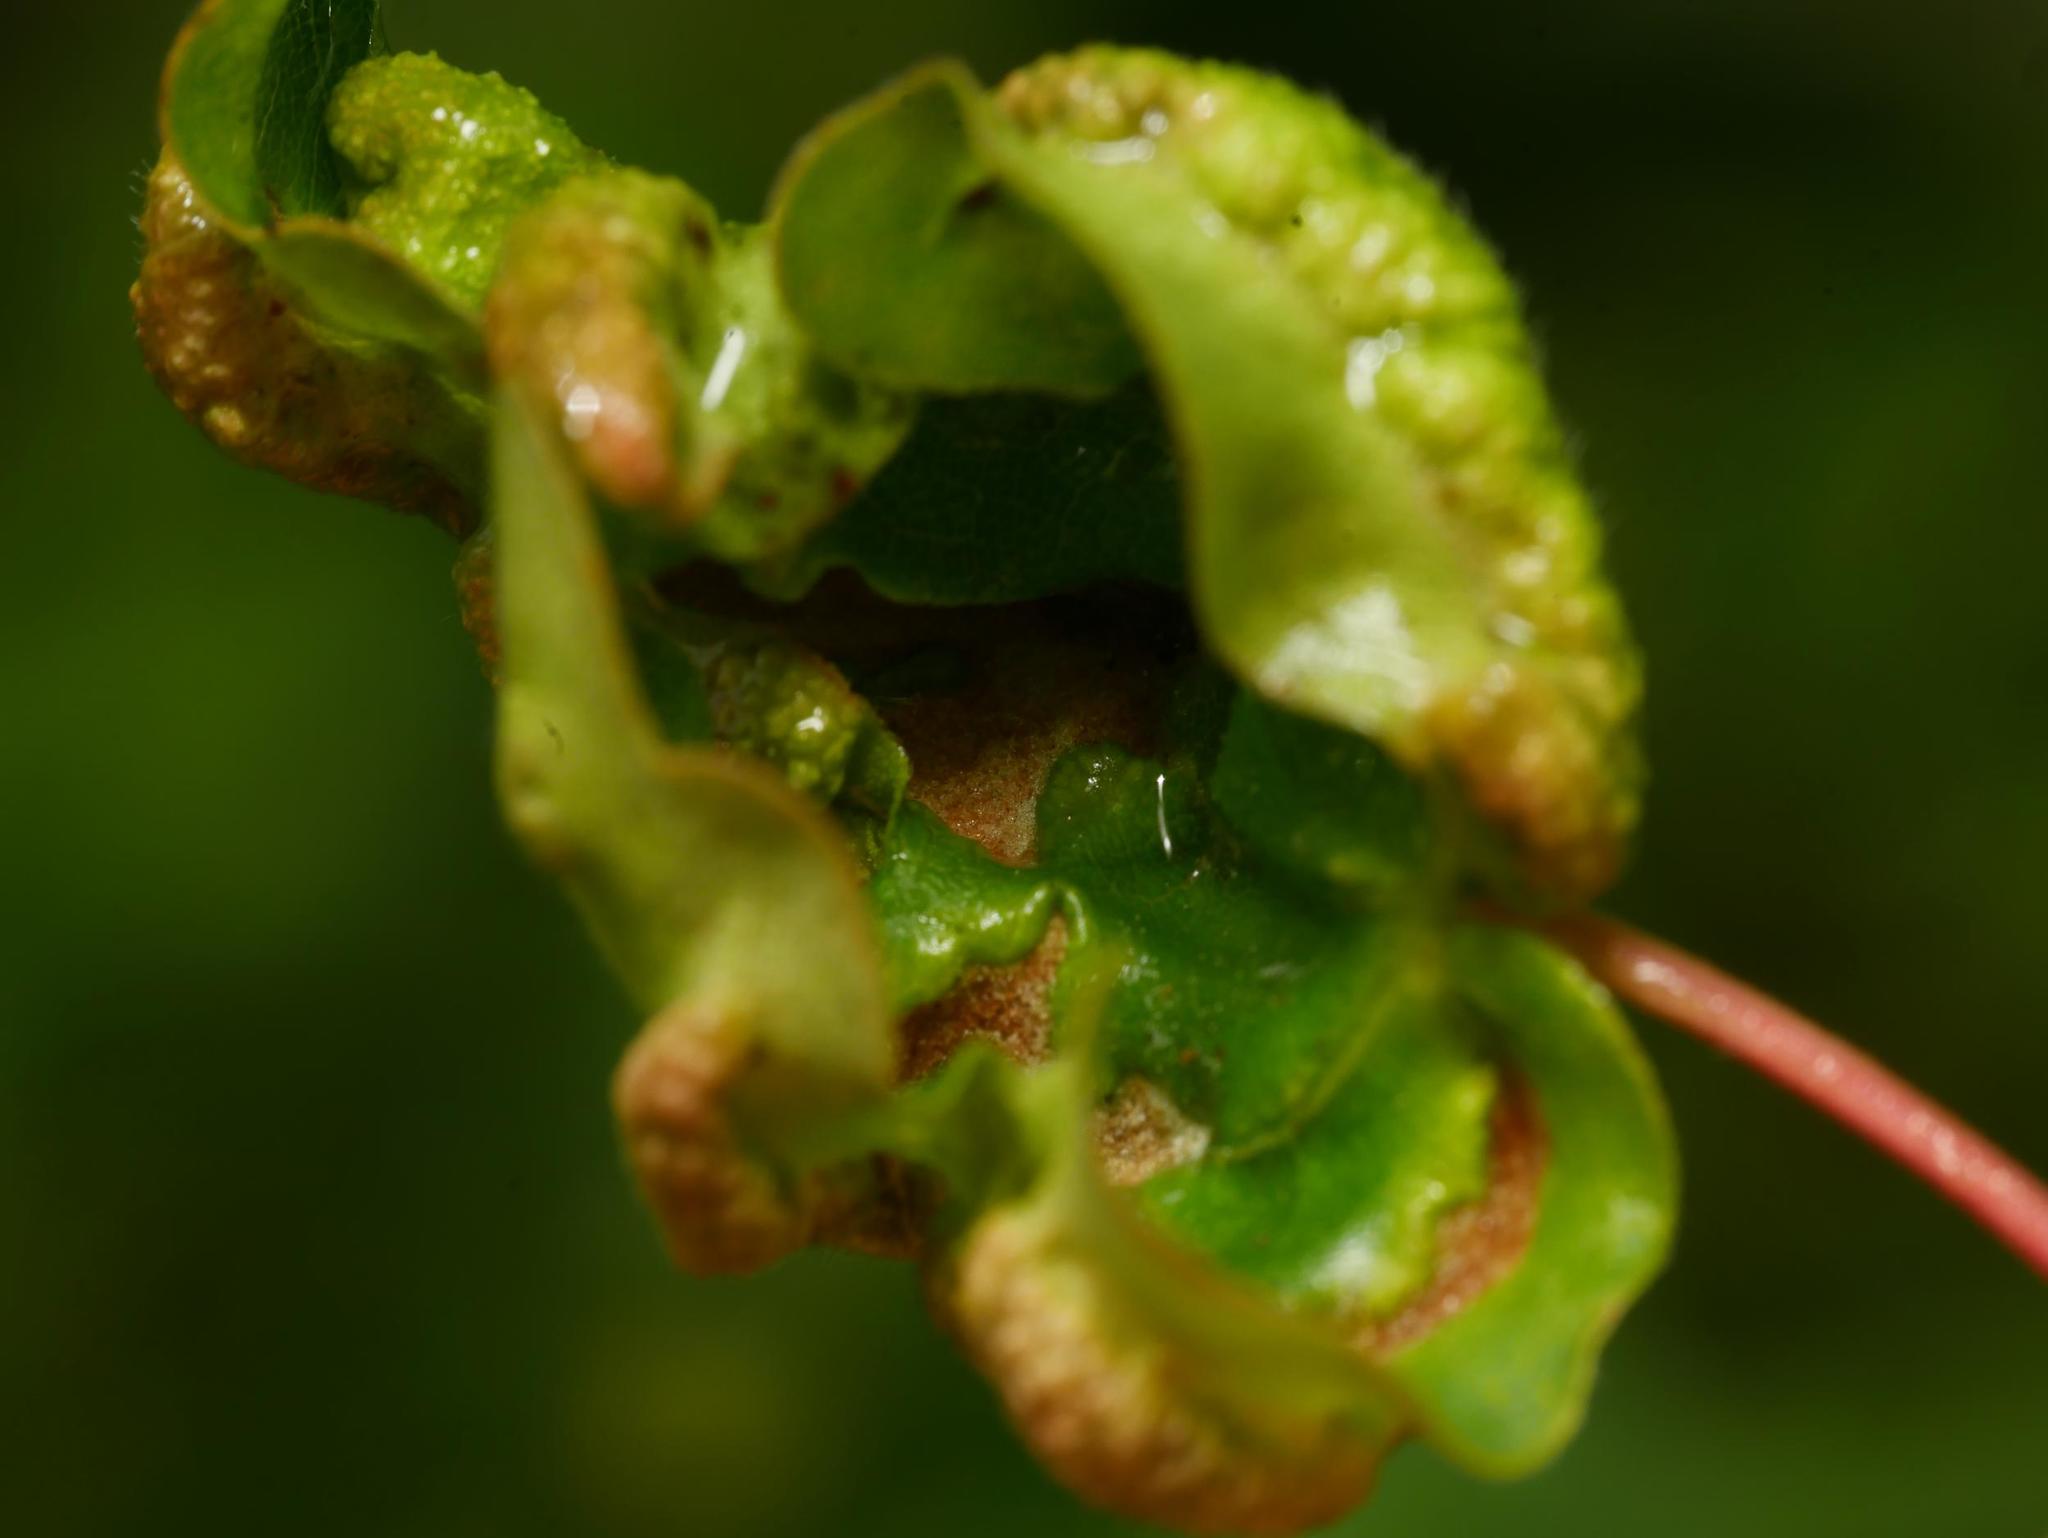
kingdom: Animalia
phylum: Arthropoda
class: Arachnida
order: Trombidiformes
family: Eriophyidae
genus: Aceria
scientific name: Aceria carinifex
